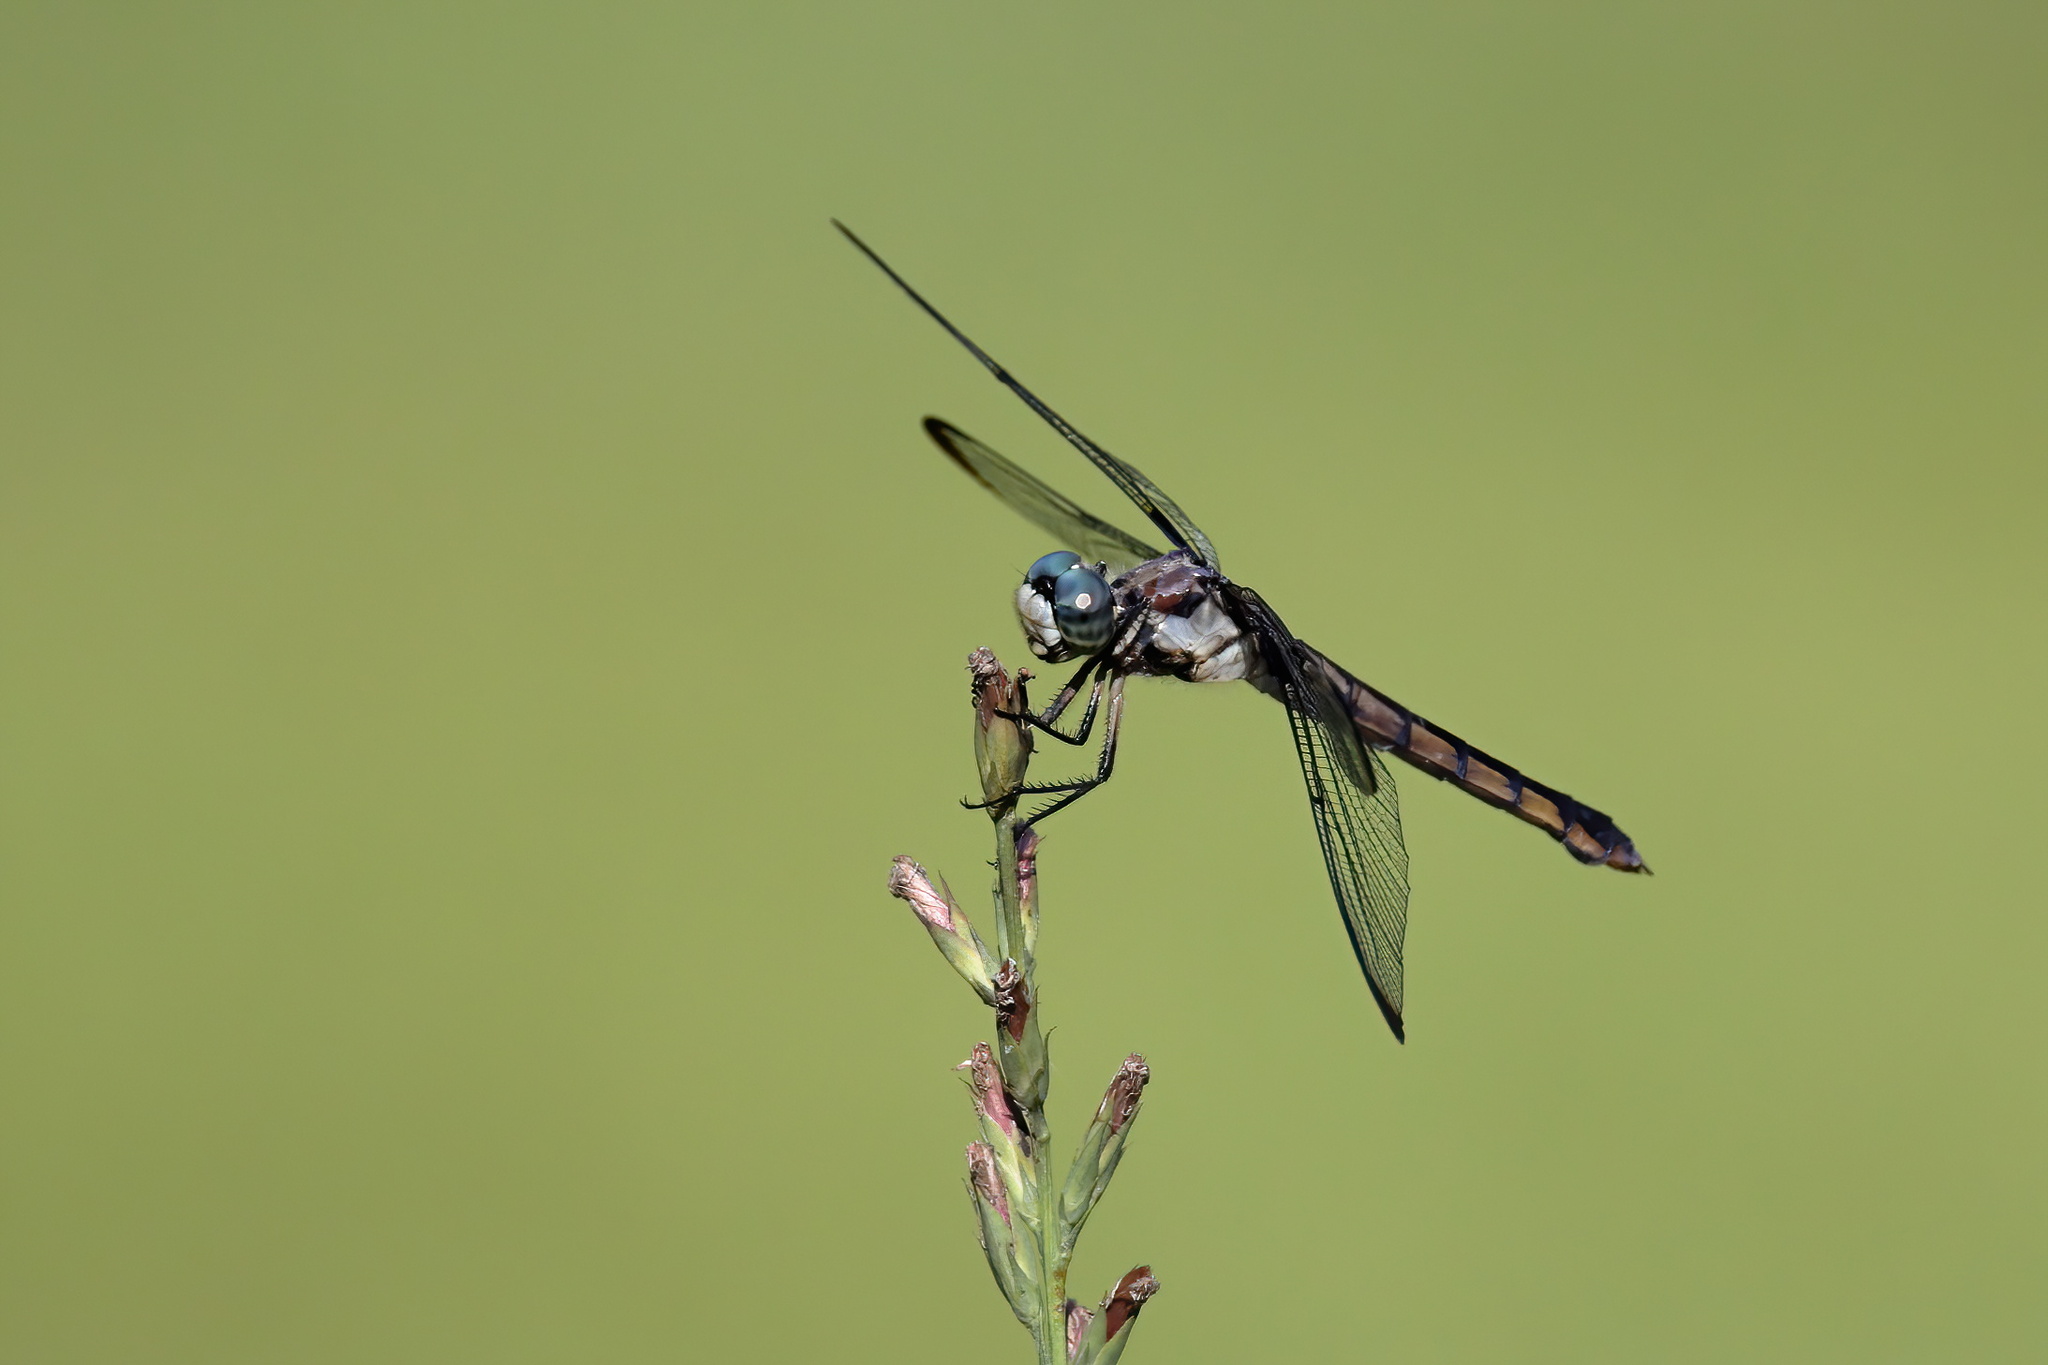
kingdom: Animalia
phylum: Arthropoda
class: Insecta
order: Odonata
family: Libellulidae
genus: Libellula
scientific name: Libellula vibrans
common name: Great blue skimmer
